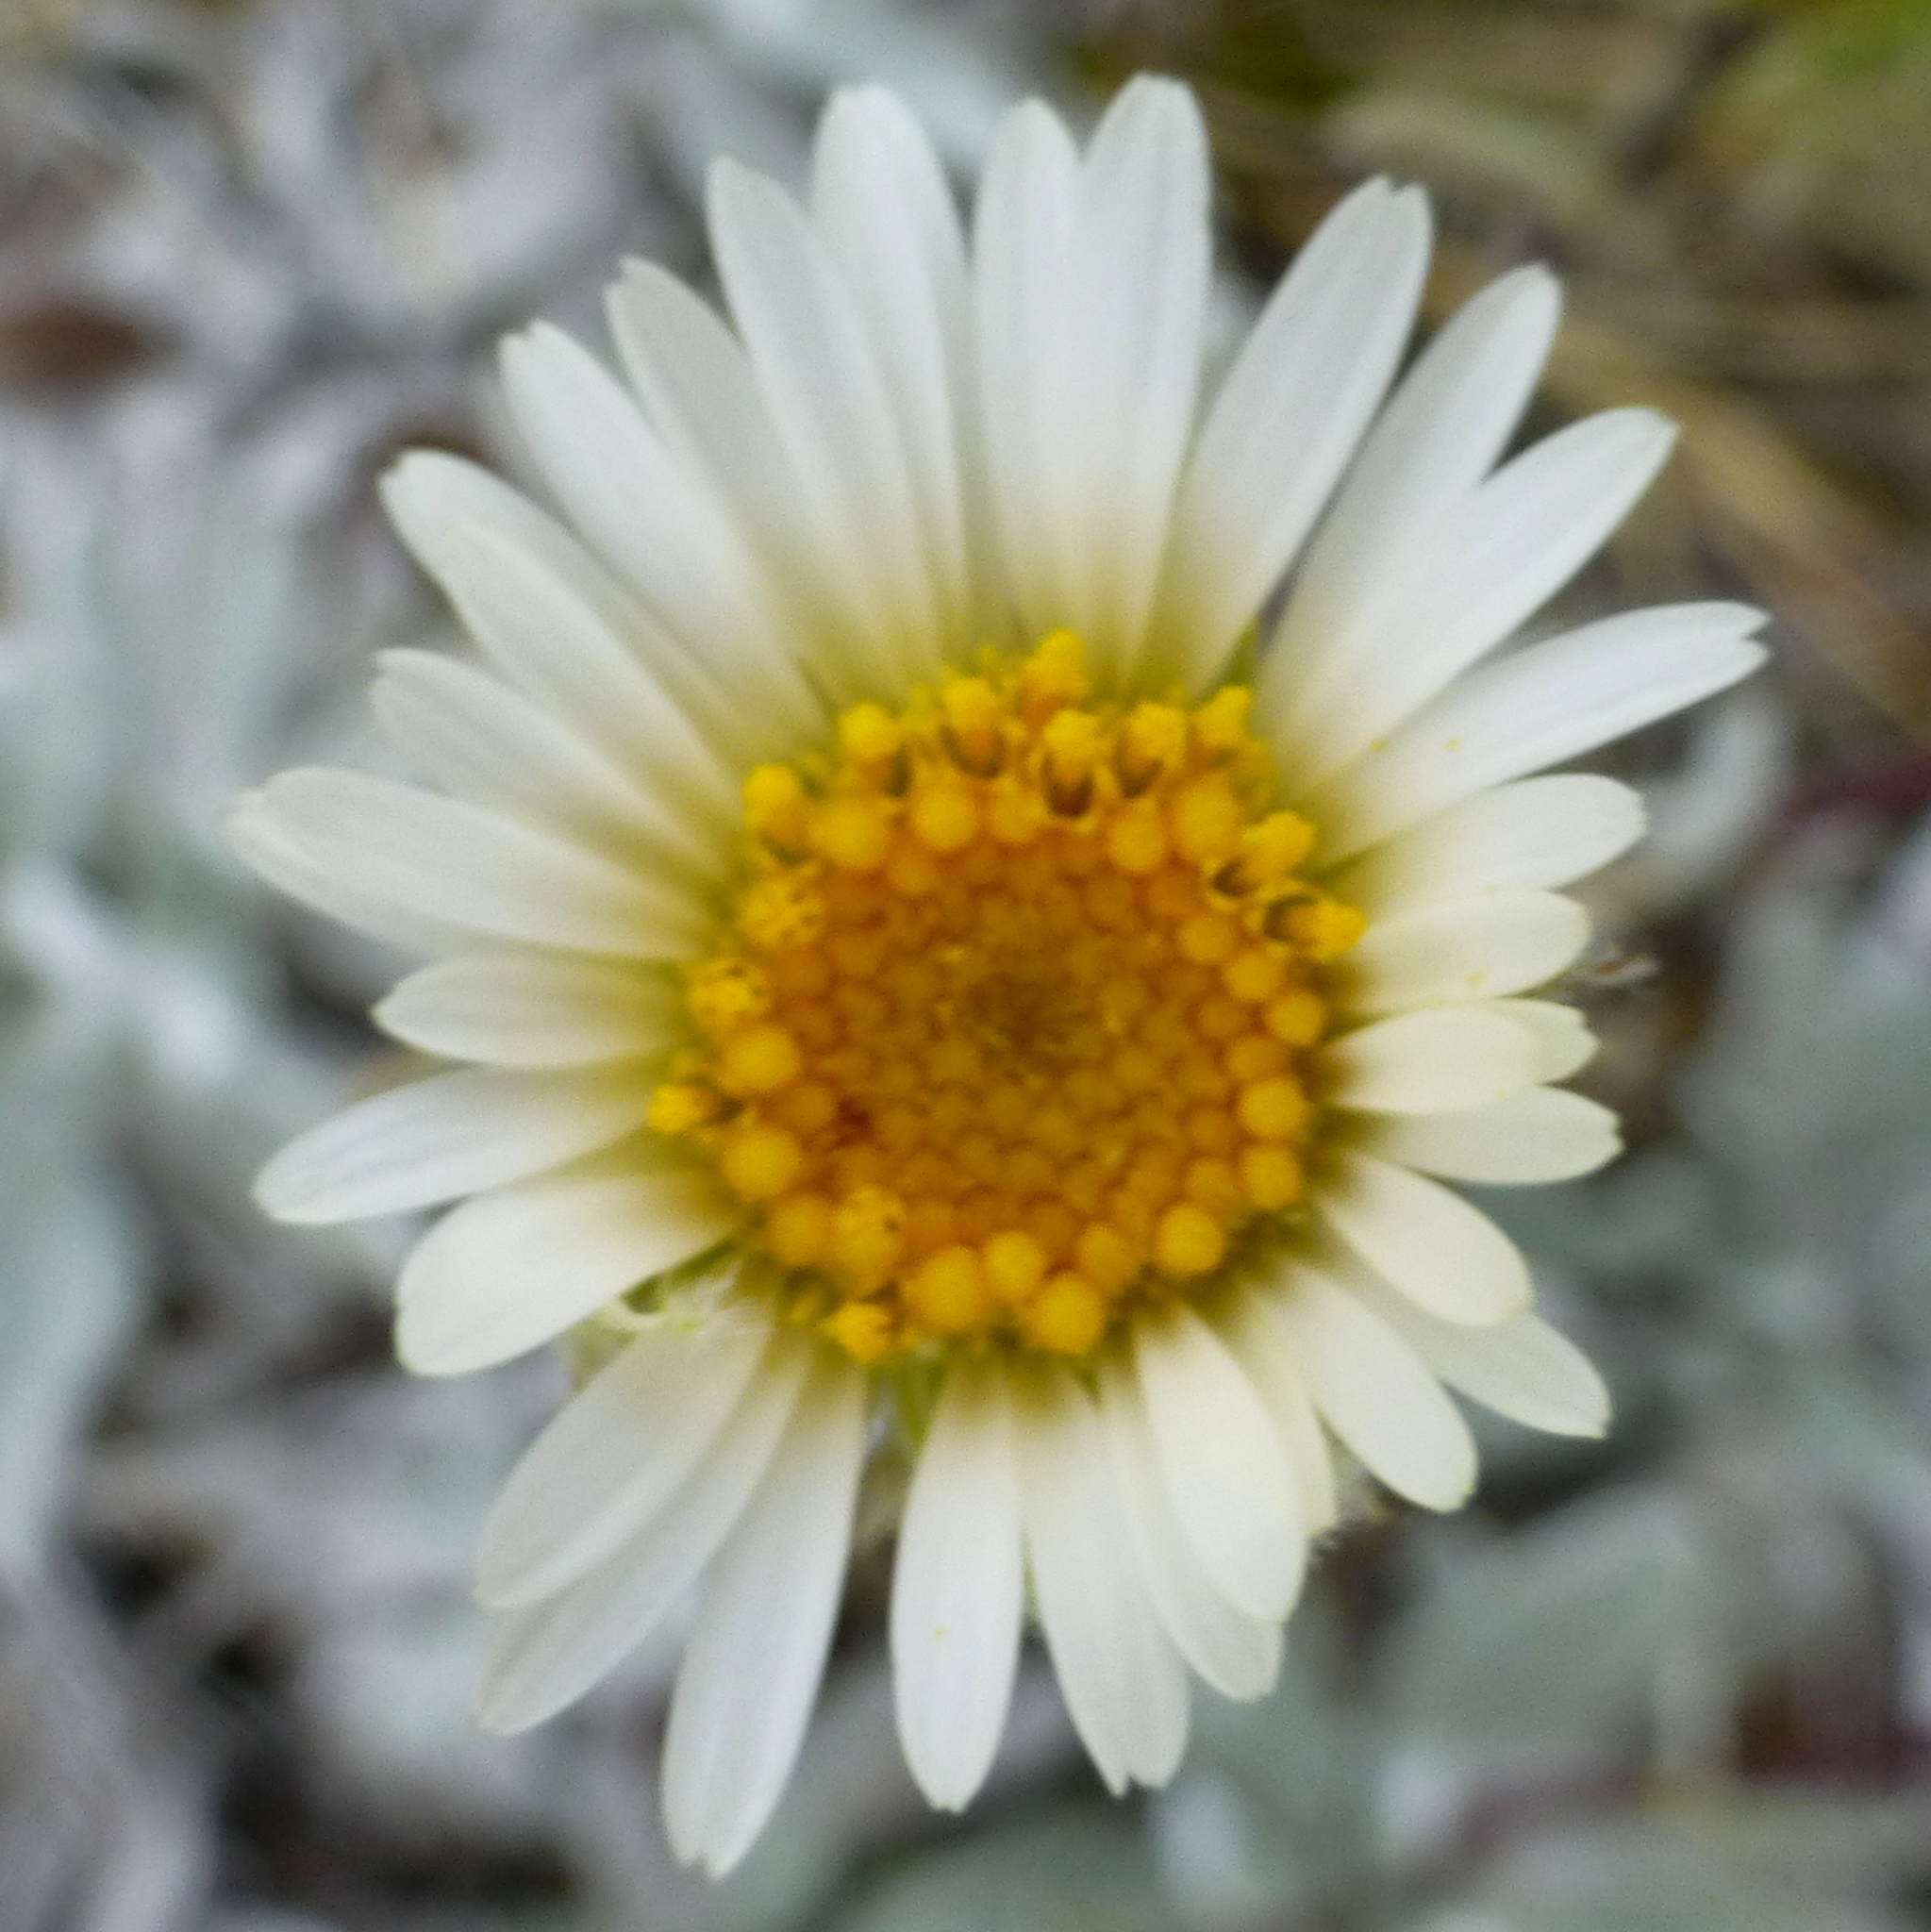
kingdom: Plantae
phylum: Tracheophyta
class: Magnoliopsida
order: Asterales
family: Asteraceae
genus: Celmisia
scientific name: Celmisia allanii
